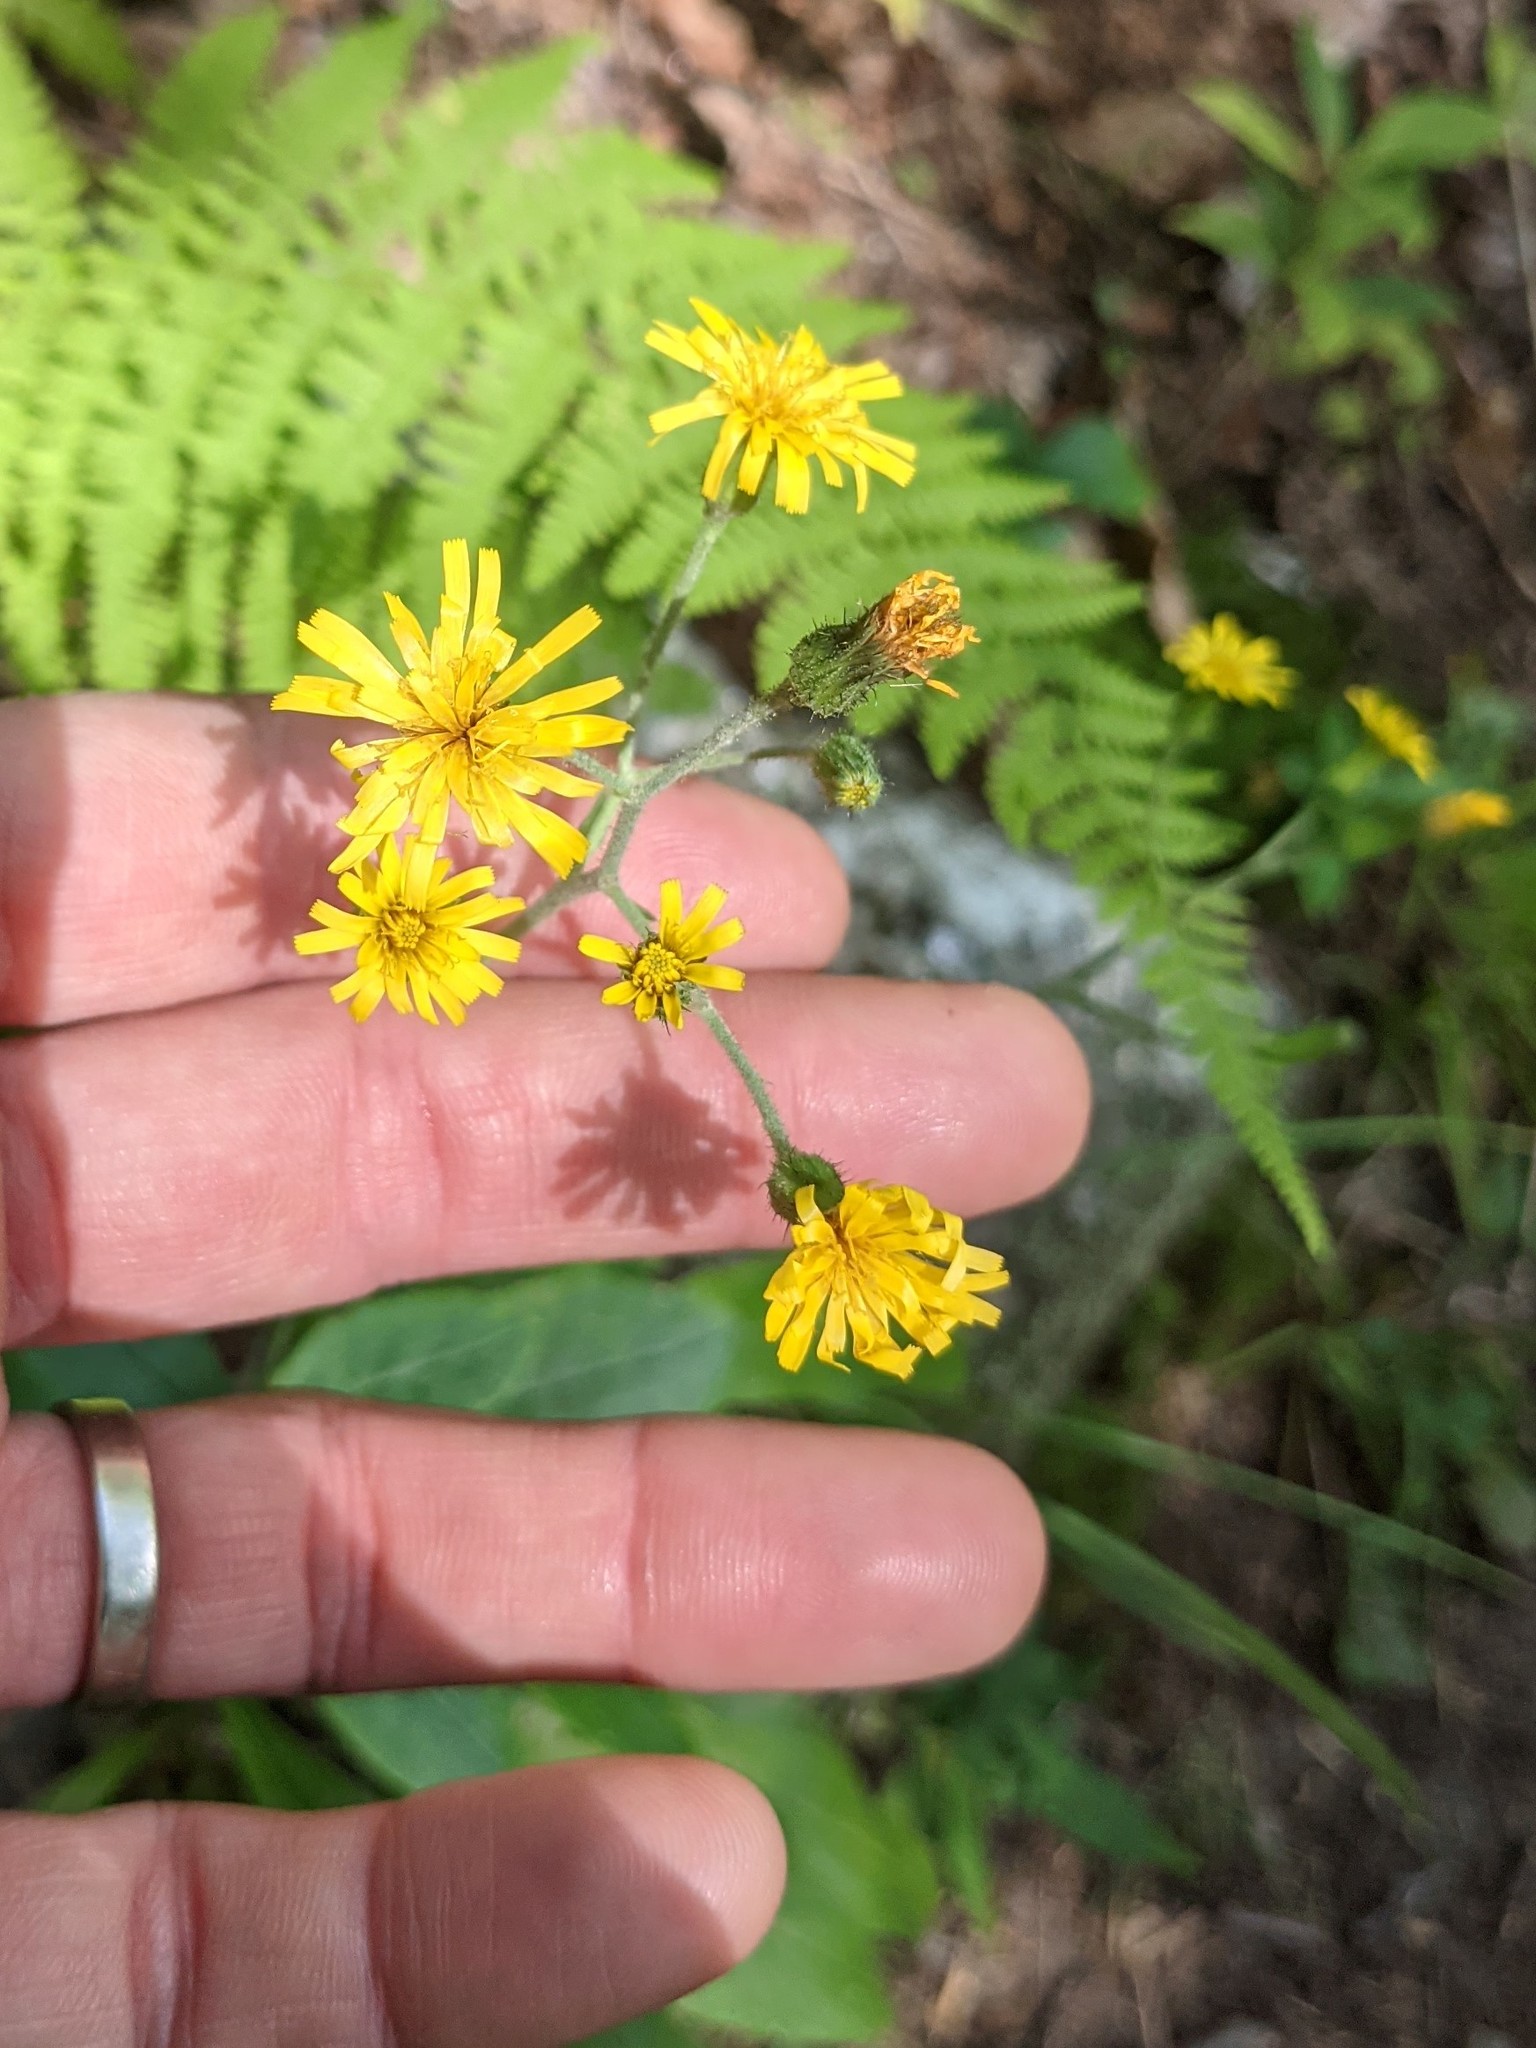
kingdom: Plantae
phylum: Tracheophyta
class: Magnoliopsida
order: Asterales
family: Asteraceae
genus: Hieracium
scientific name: Hieracium scabrum
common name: Rough hawkweed
